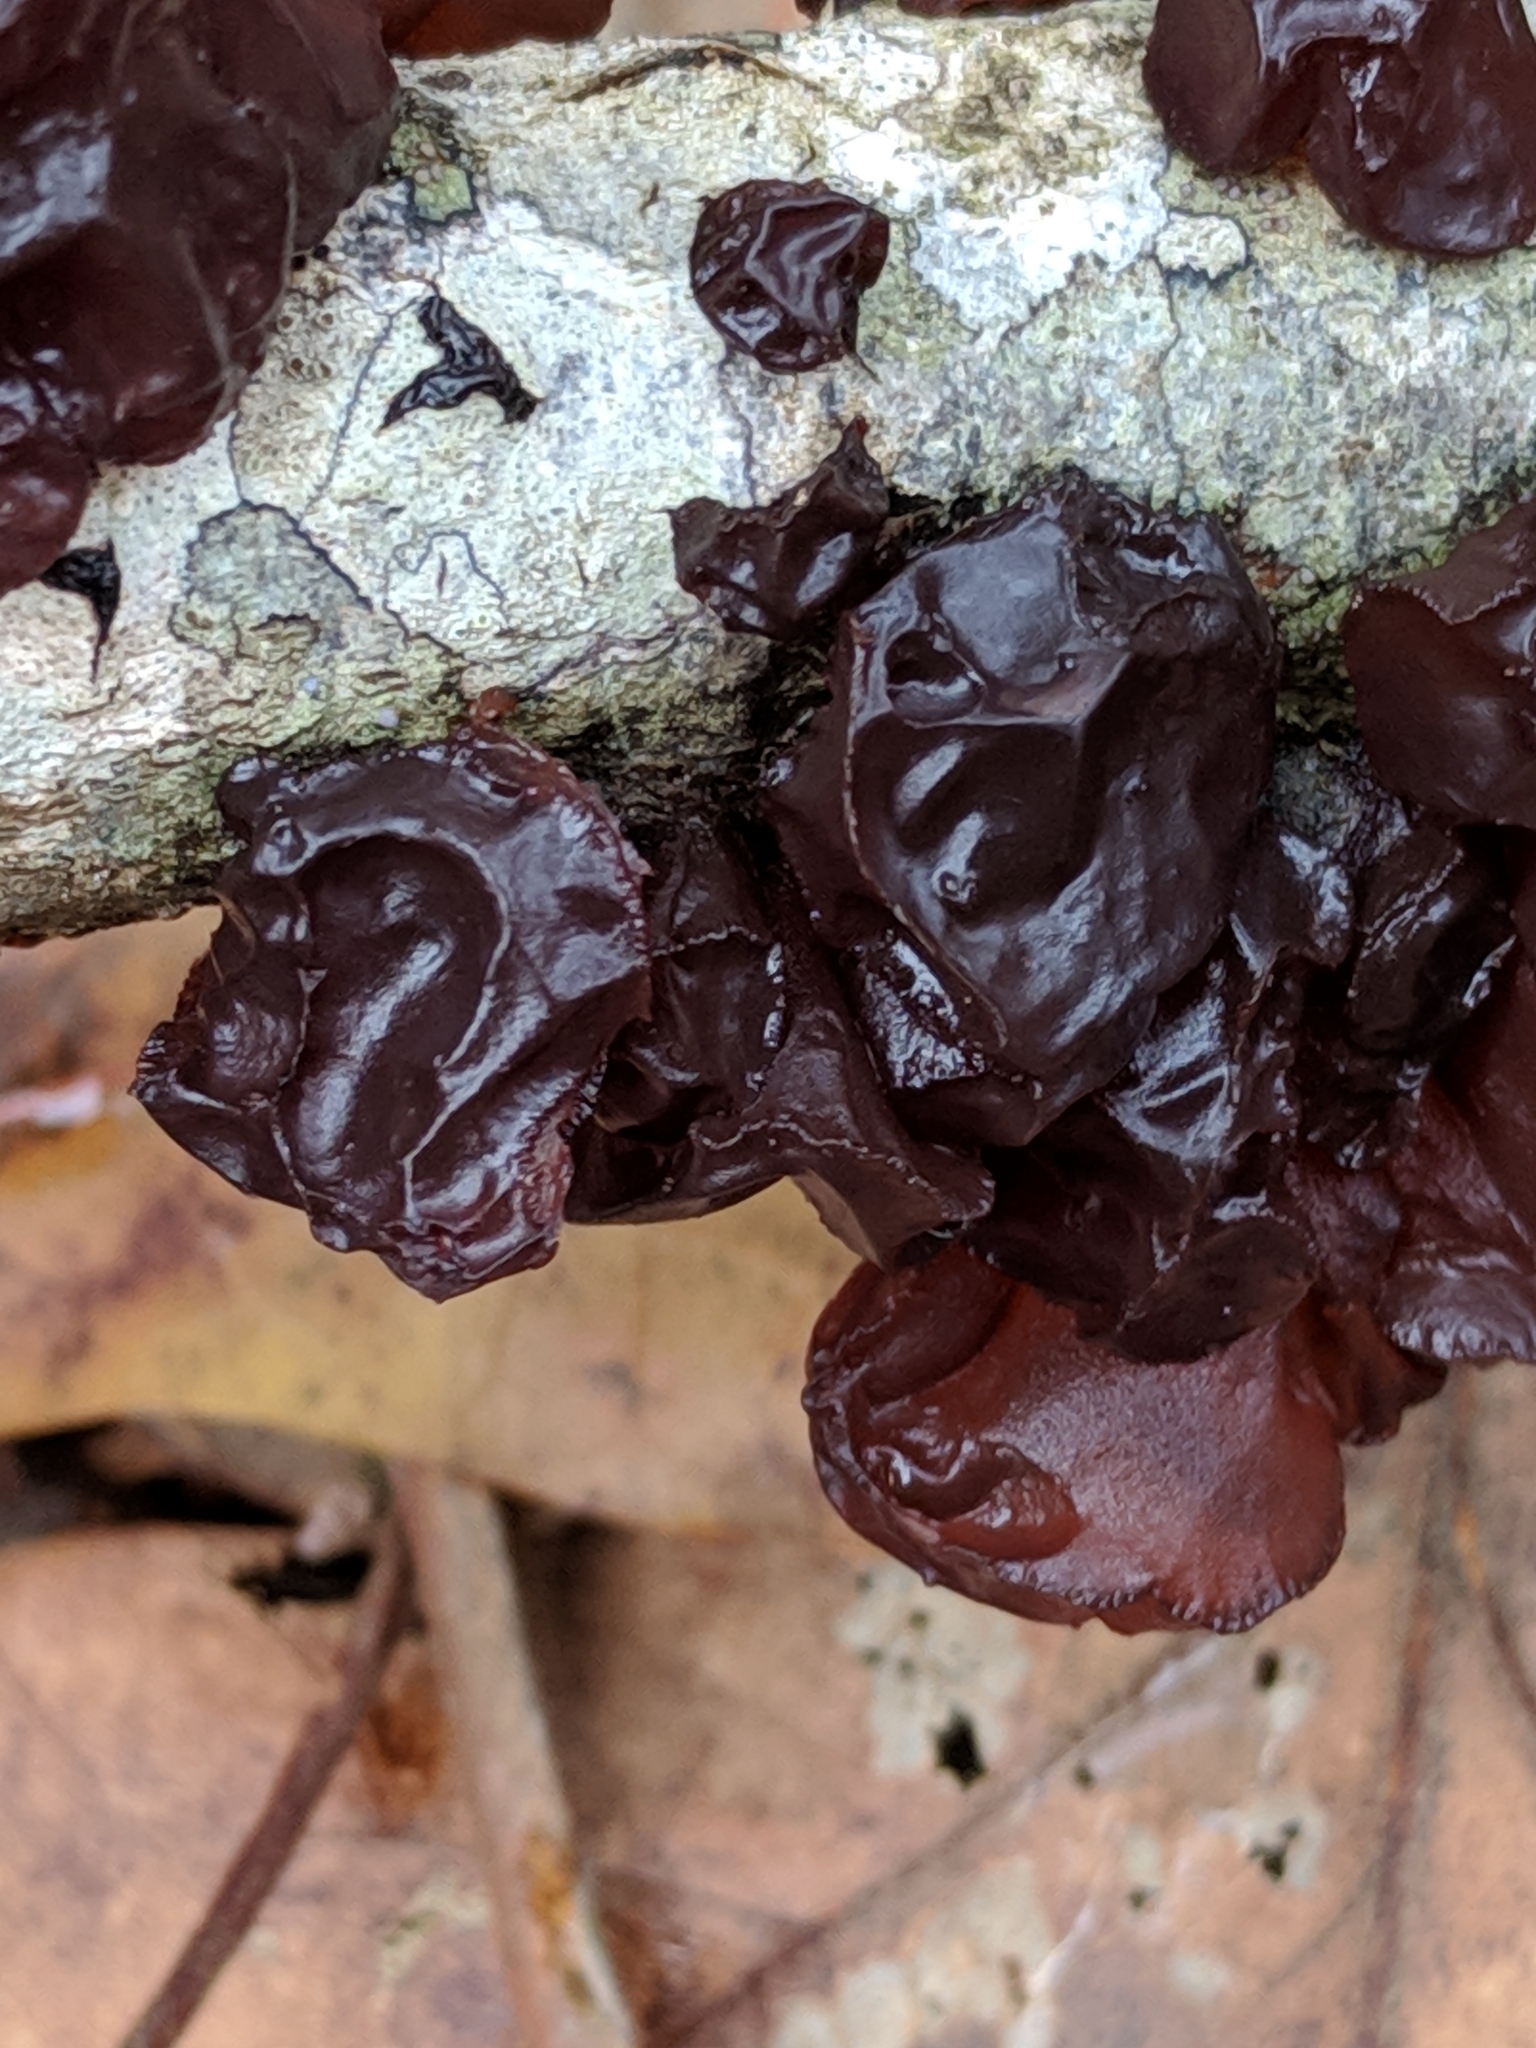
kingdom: Fungi
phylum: Basidiomycota
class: Agaricomycetes
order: Auriculariales
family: Auriculariaceae
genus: Exidia
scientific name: Exidia
